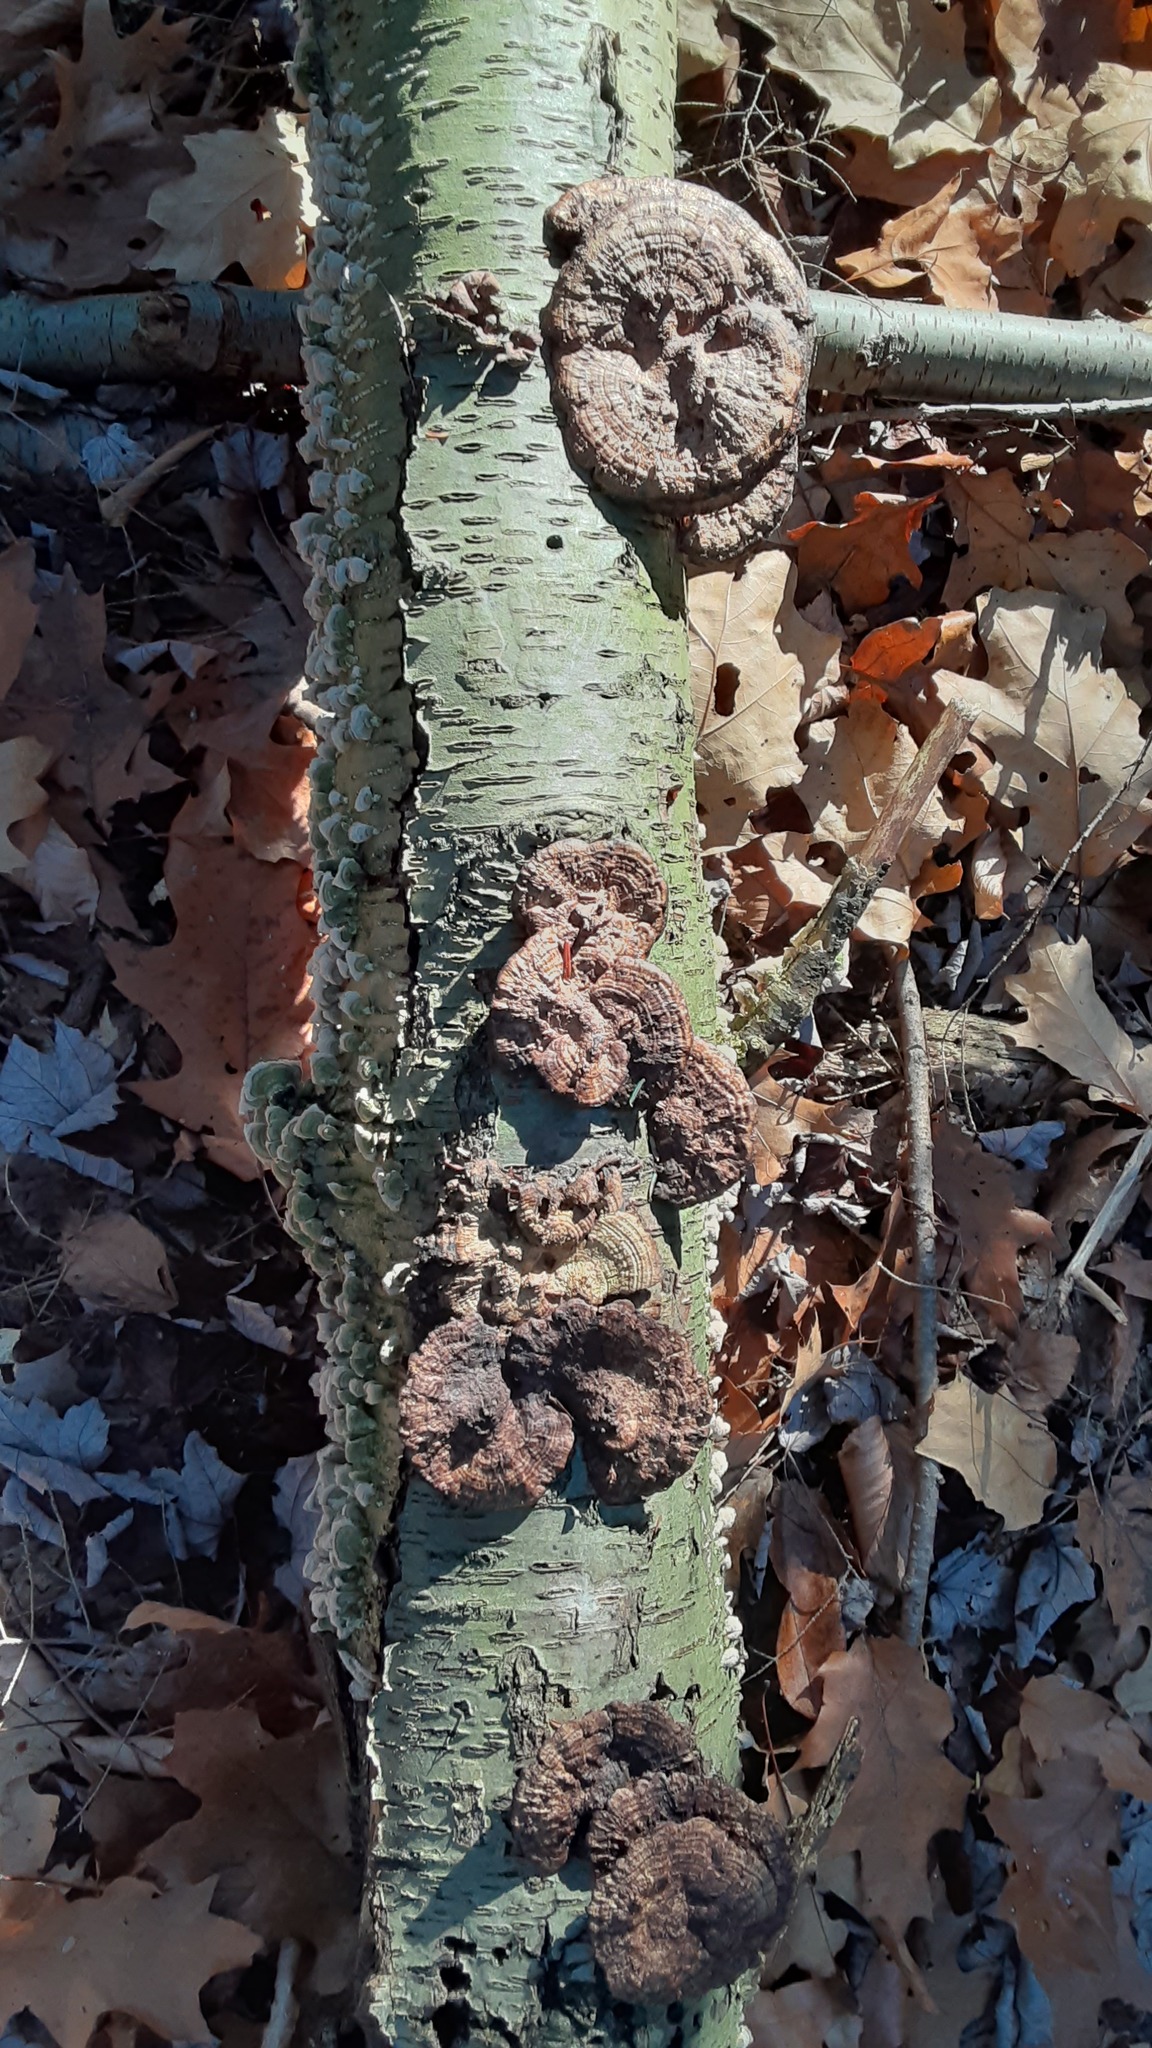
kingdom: Fungi
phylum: Basidiomycota
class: Agaricomycetes
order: Polyporales
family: Polyporaceae
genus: Daedaleopsis
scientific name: Daedaleopsis confragosa
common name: Blushing bracket
